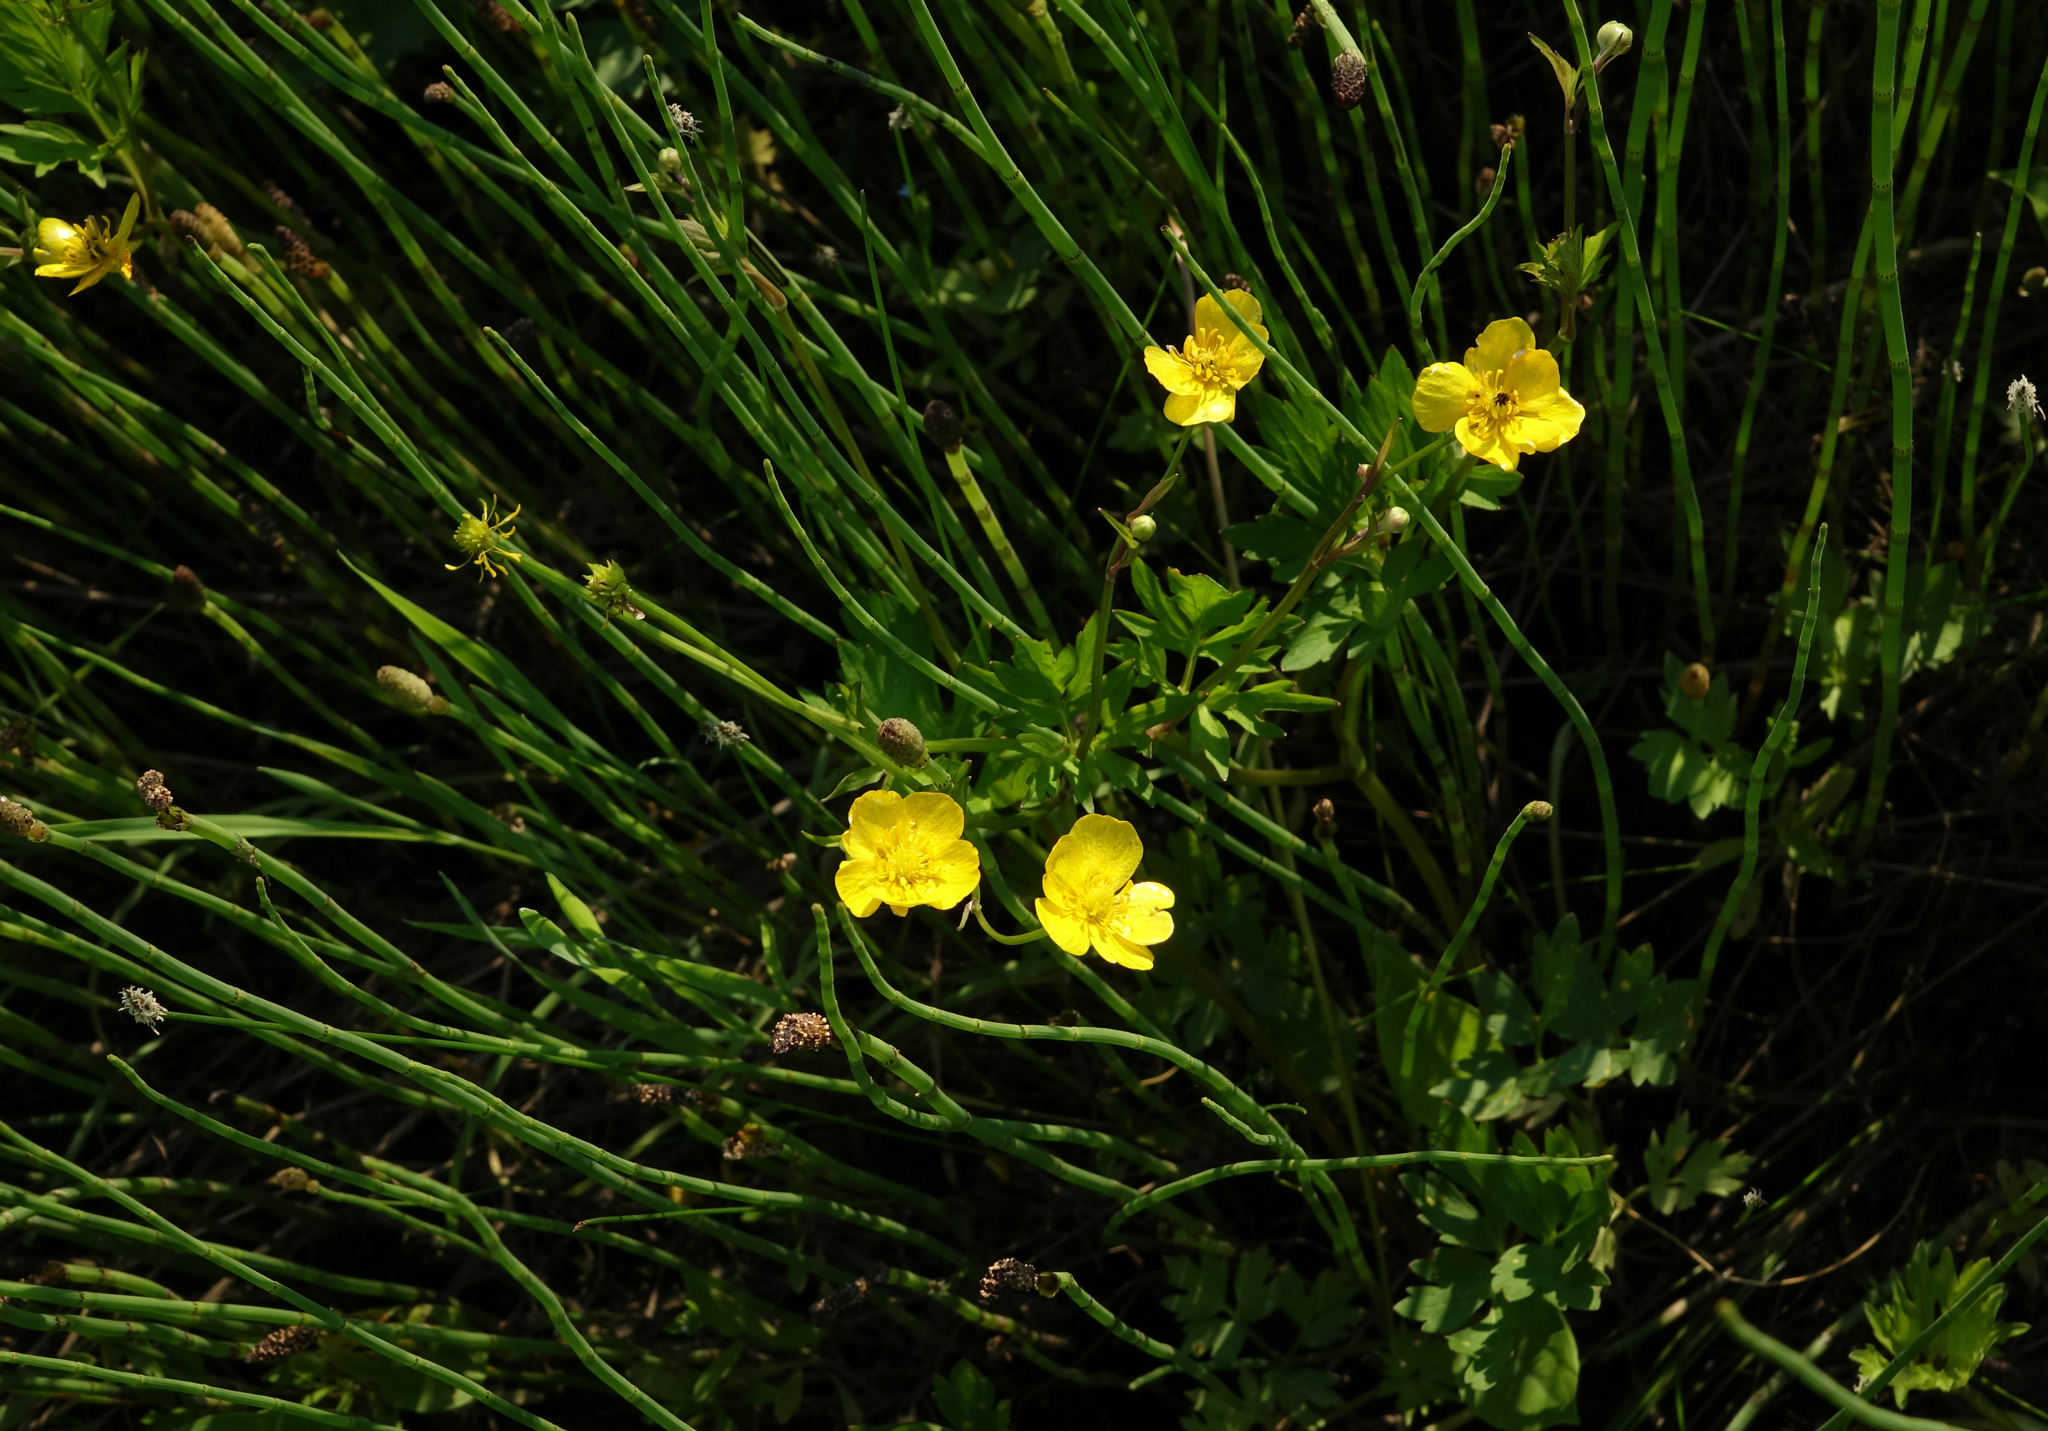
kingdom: Plantae
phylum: Tracheophyta
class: Magnoliopsida
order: Ranunculales
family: Ranunculaceae
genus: Ranunculus
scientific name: Ranunculus repens
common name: Creeping buttercup
